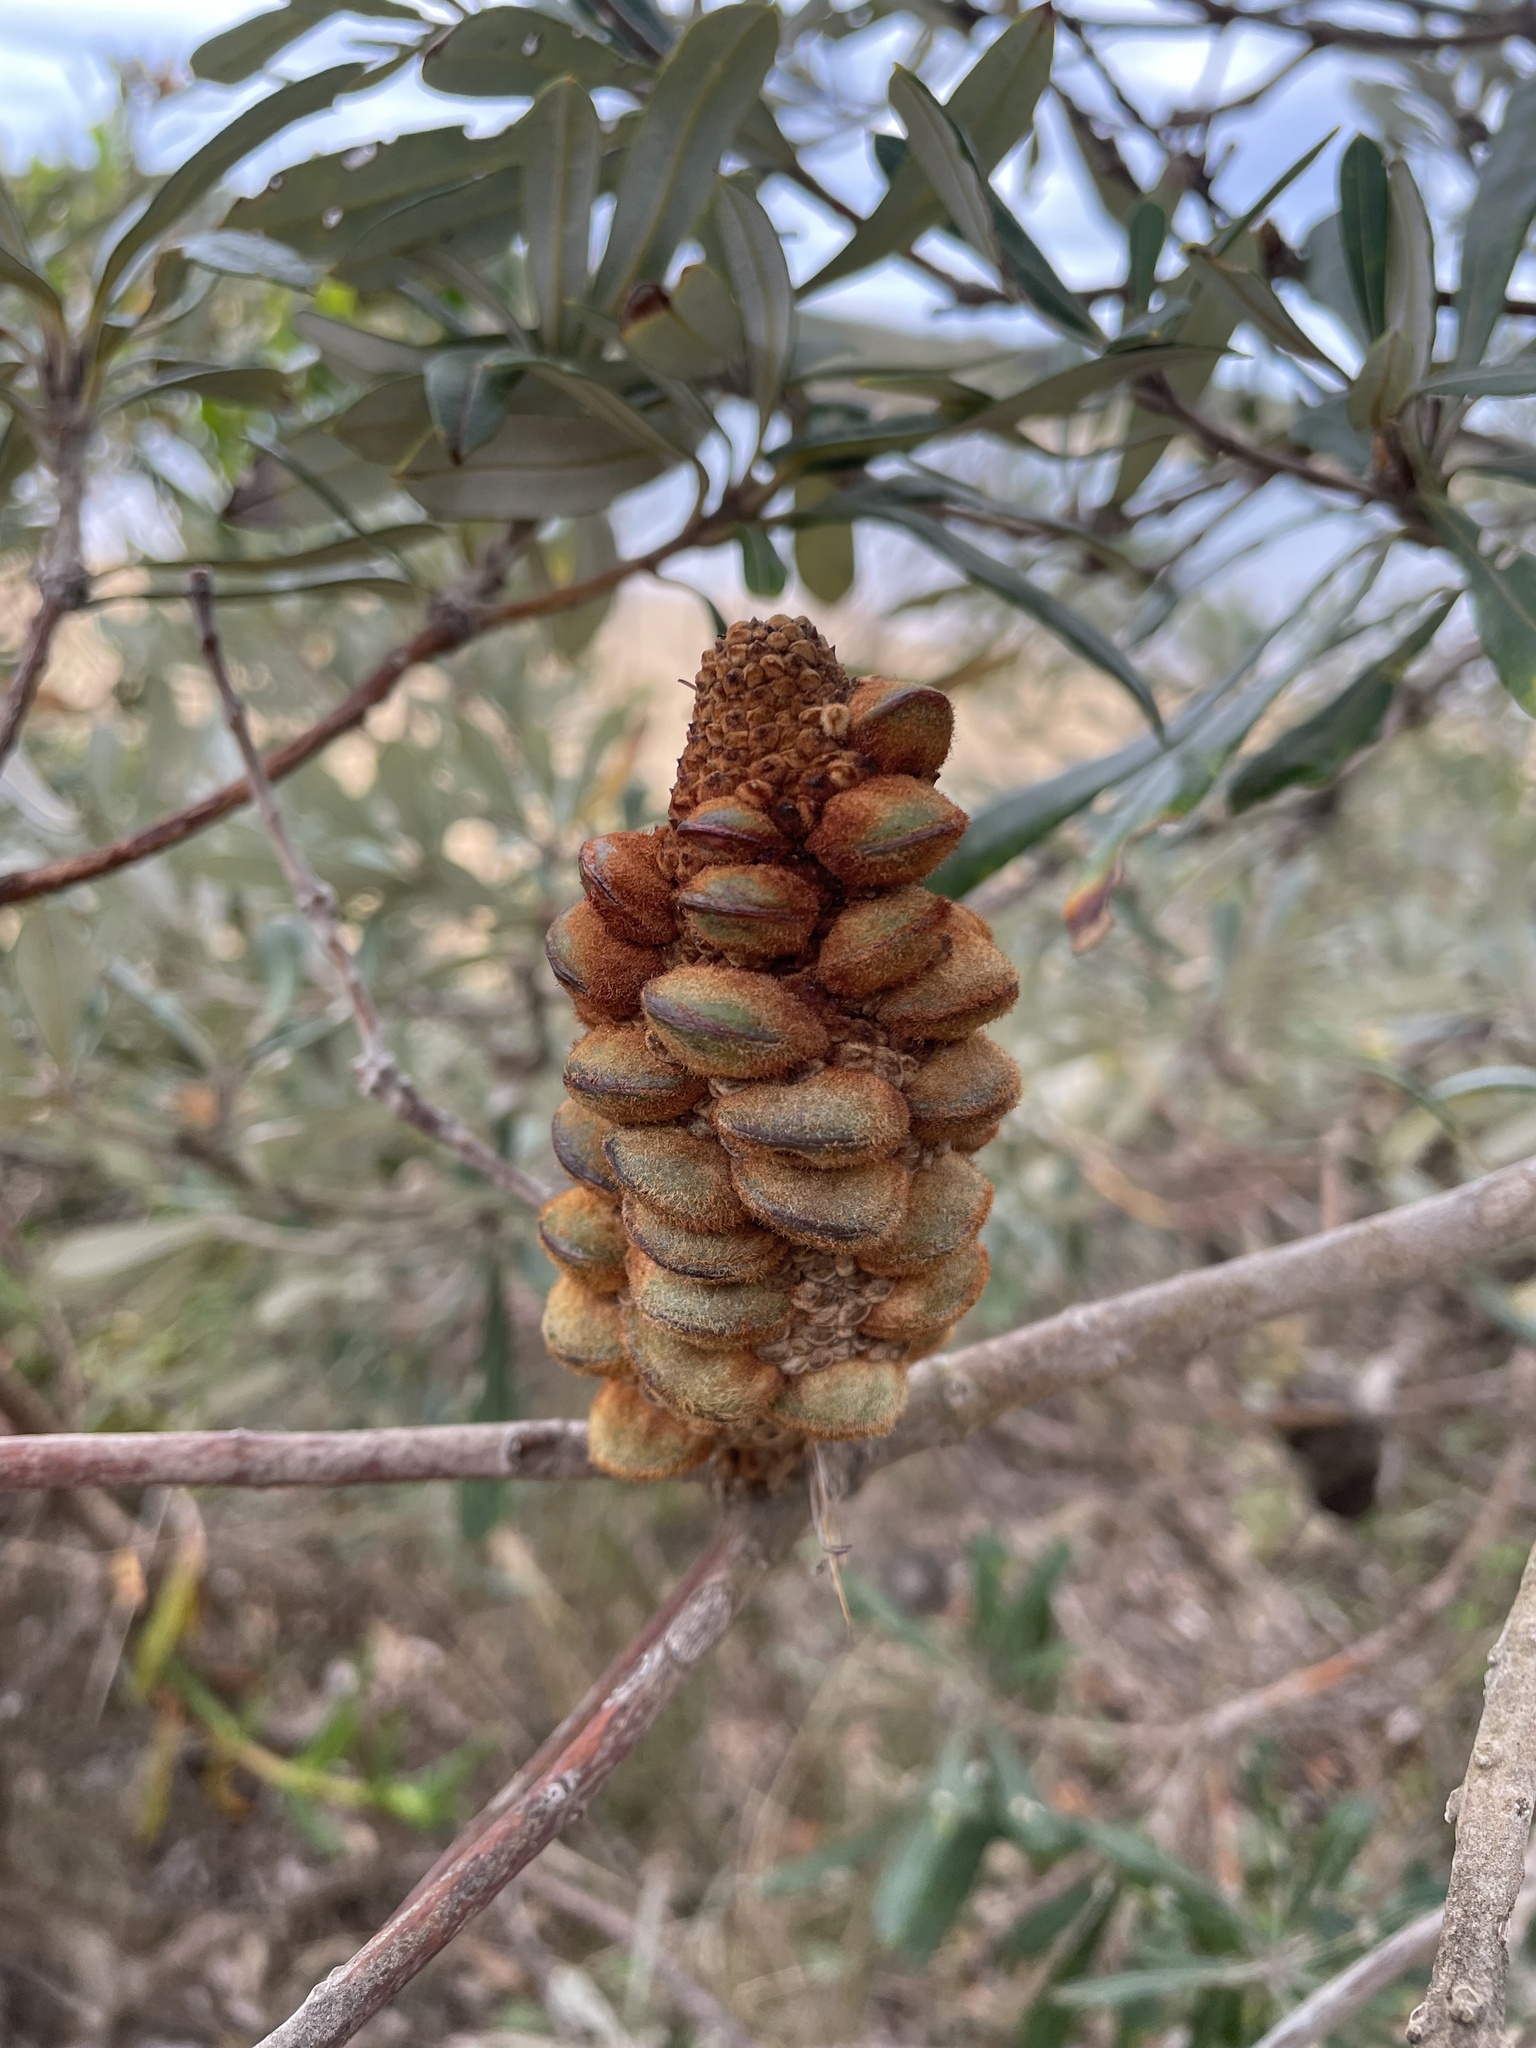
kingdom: Plantae
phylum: Tracheophyta
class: Magnoliopsida
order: Proteales
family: Proteaceae
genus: Banksia
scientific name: Banksia integrifolia
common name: White-honeysuckle
